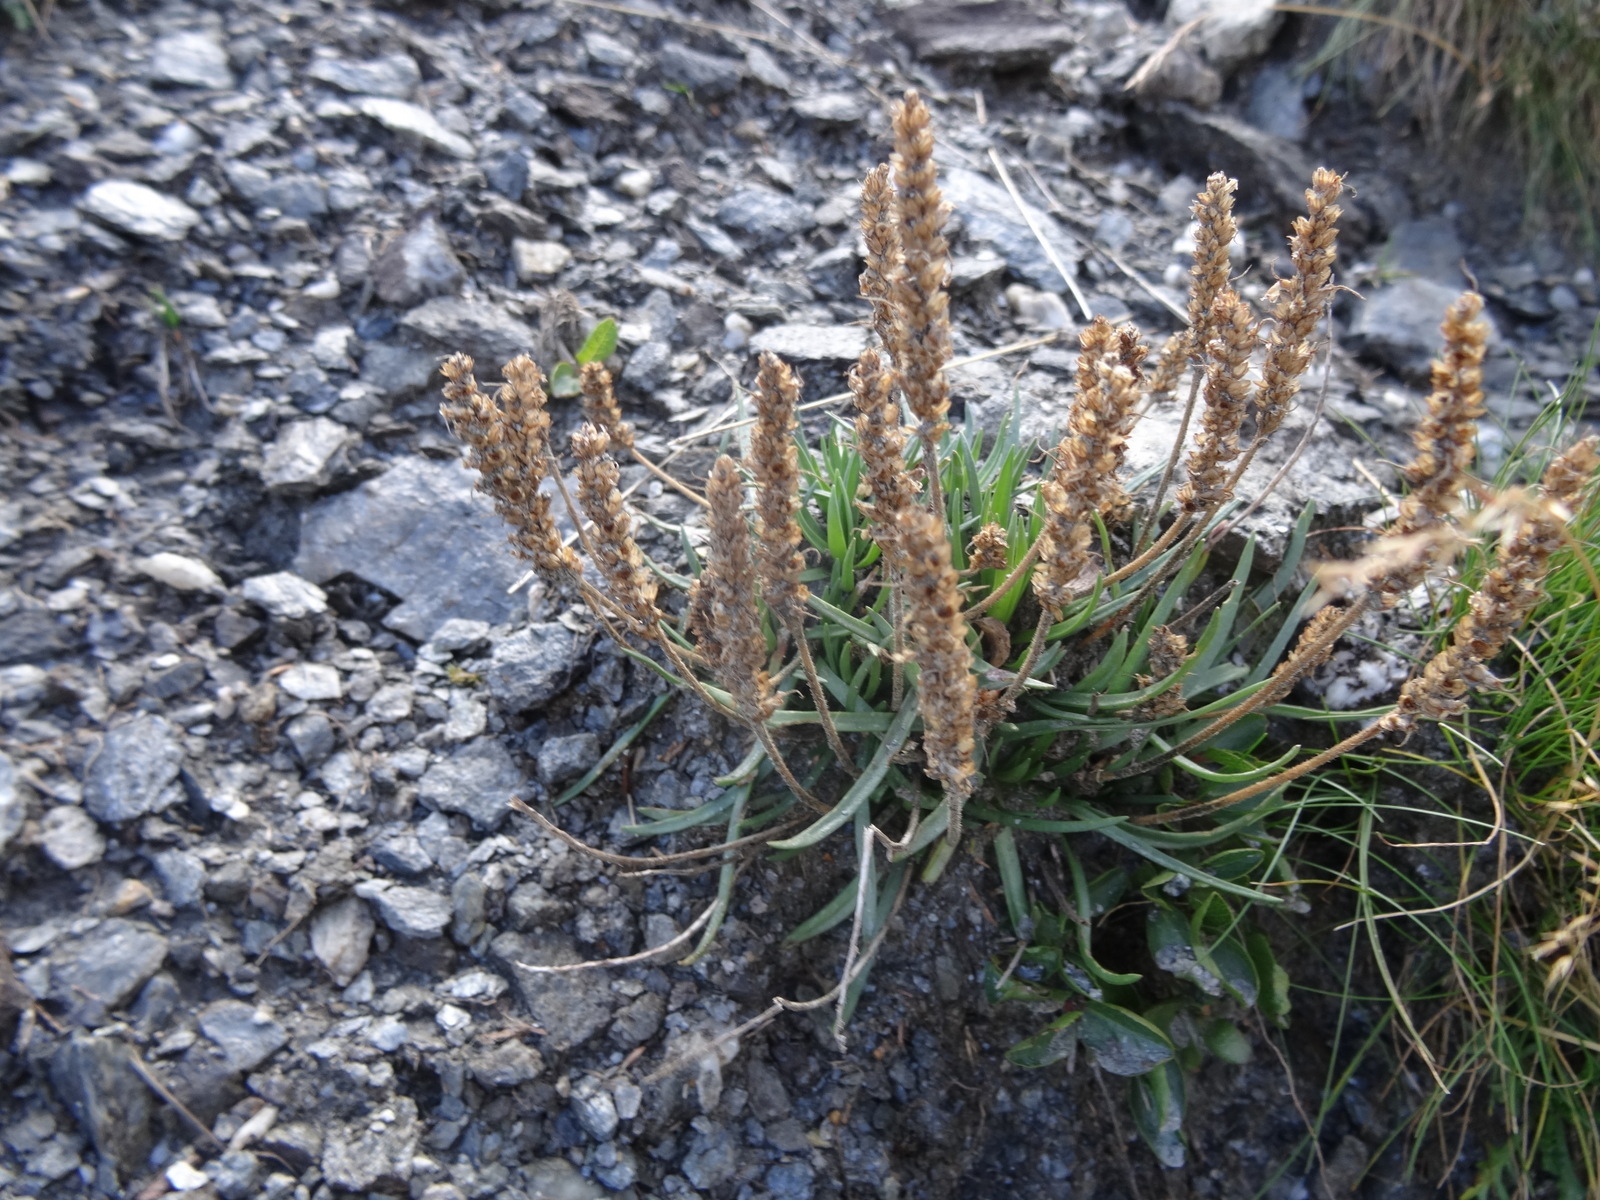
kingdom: Plantae
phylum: Tracheophyta
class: Magnoliopsida
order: Lamiales
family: Plantaginaceae
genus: Plantago
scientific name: Plantago alpina
